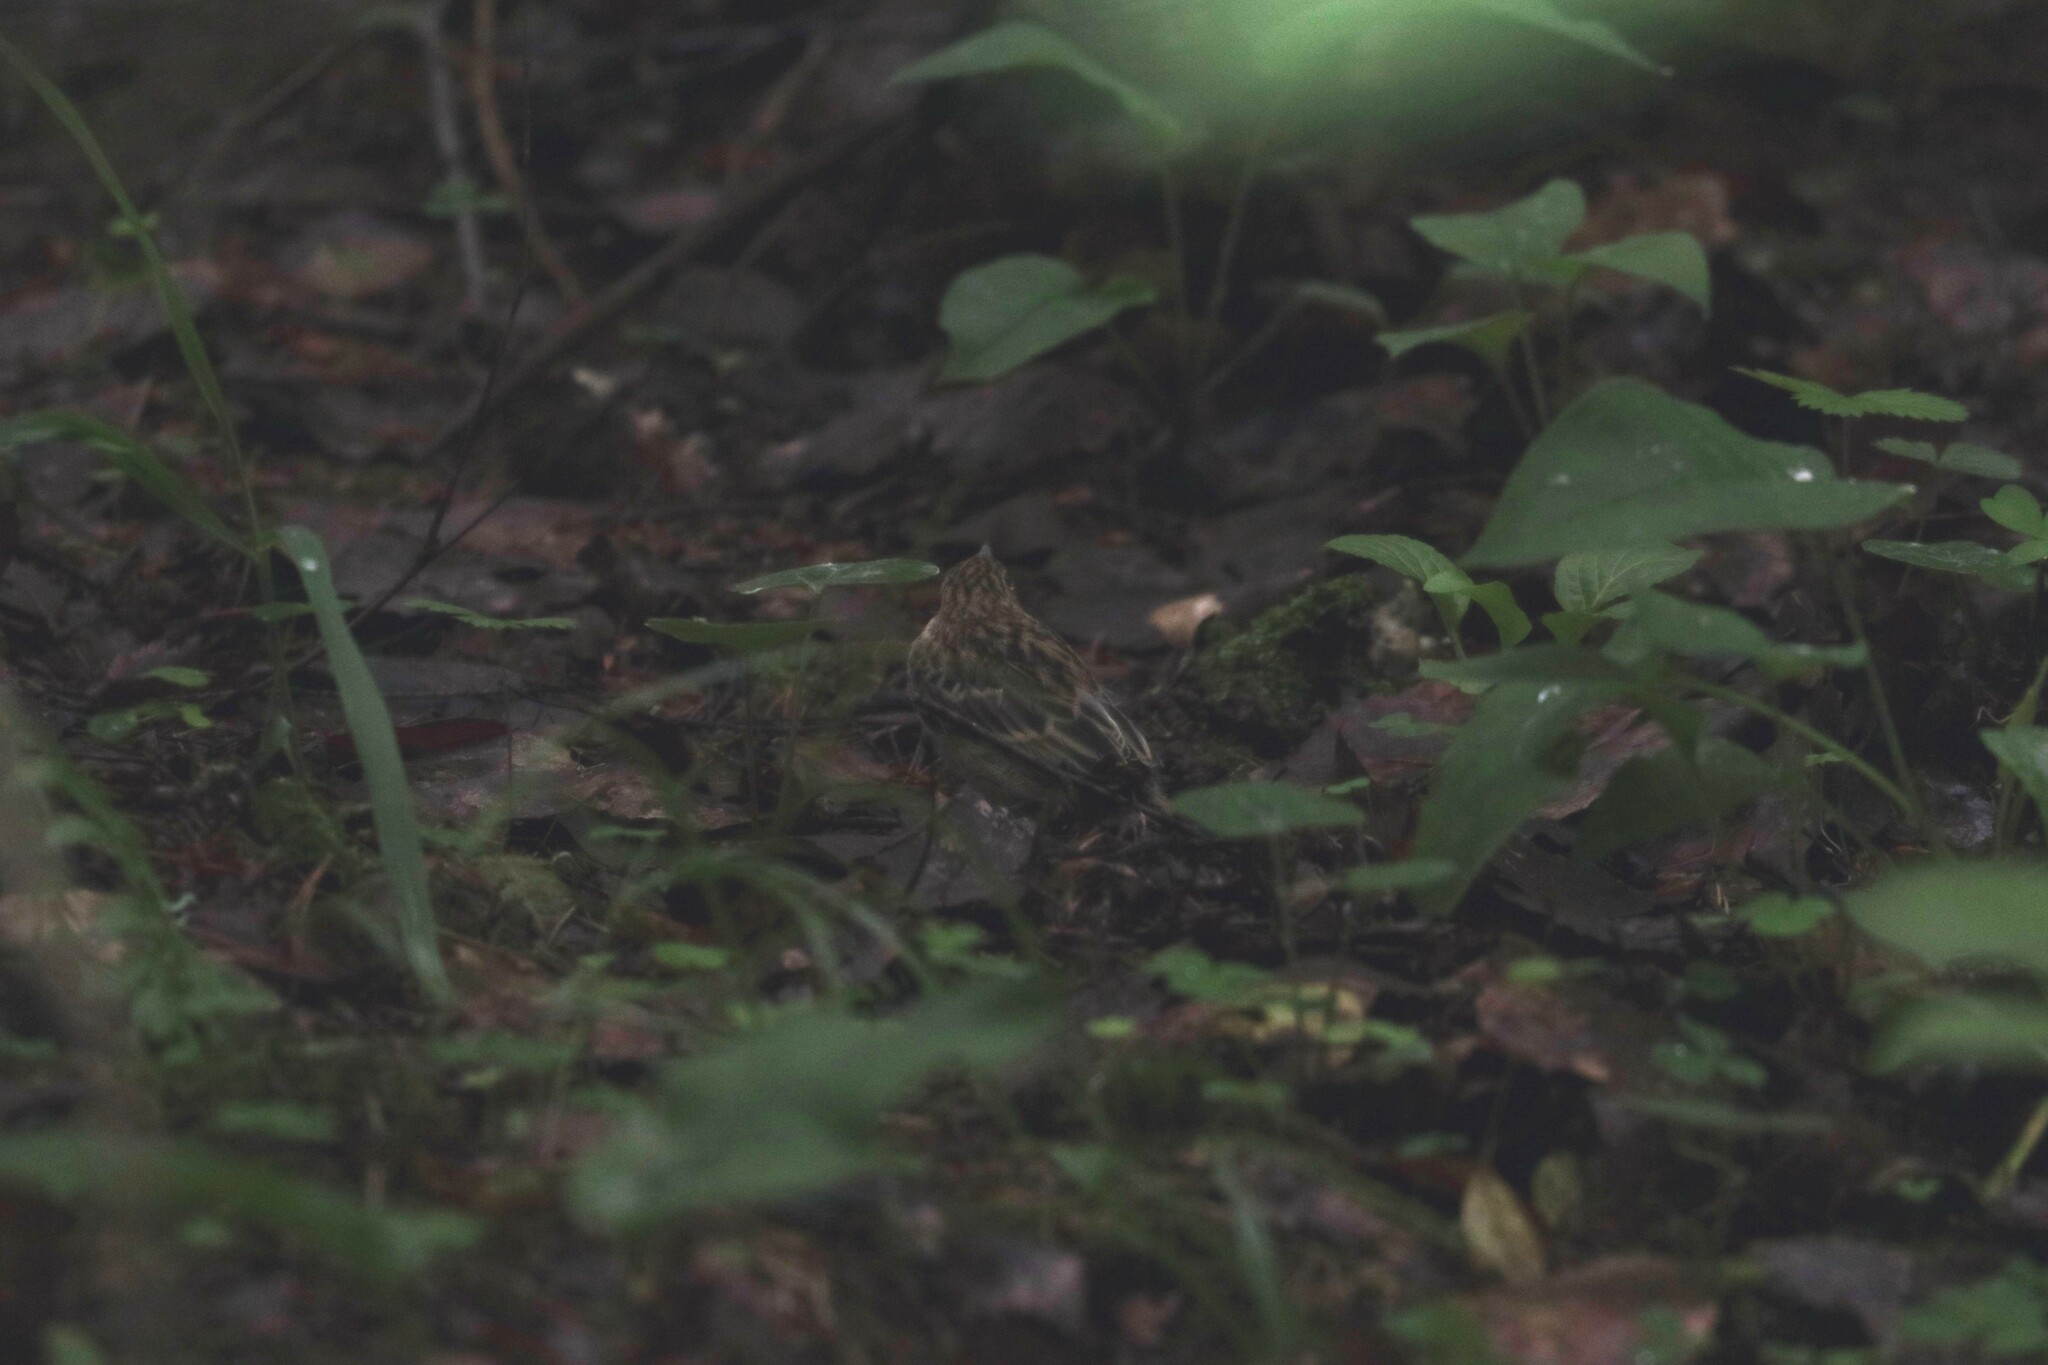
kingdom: Animalia
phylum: Chordata
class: Aves
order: Passeriformes
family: Motacillidae
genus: Anthus
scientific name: Anthus trivialis
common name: Tree pipit
